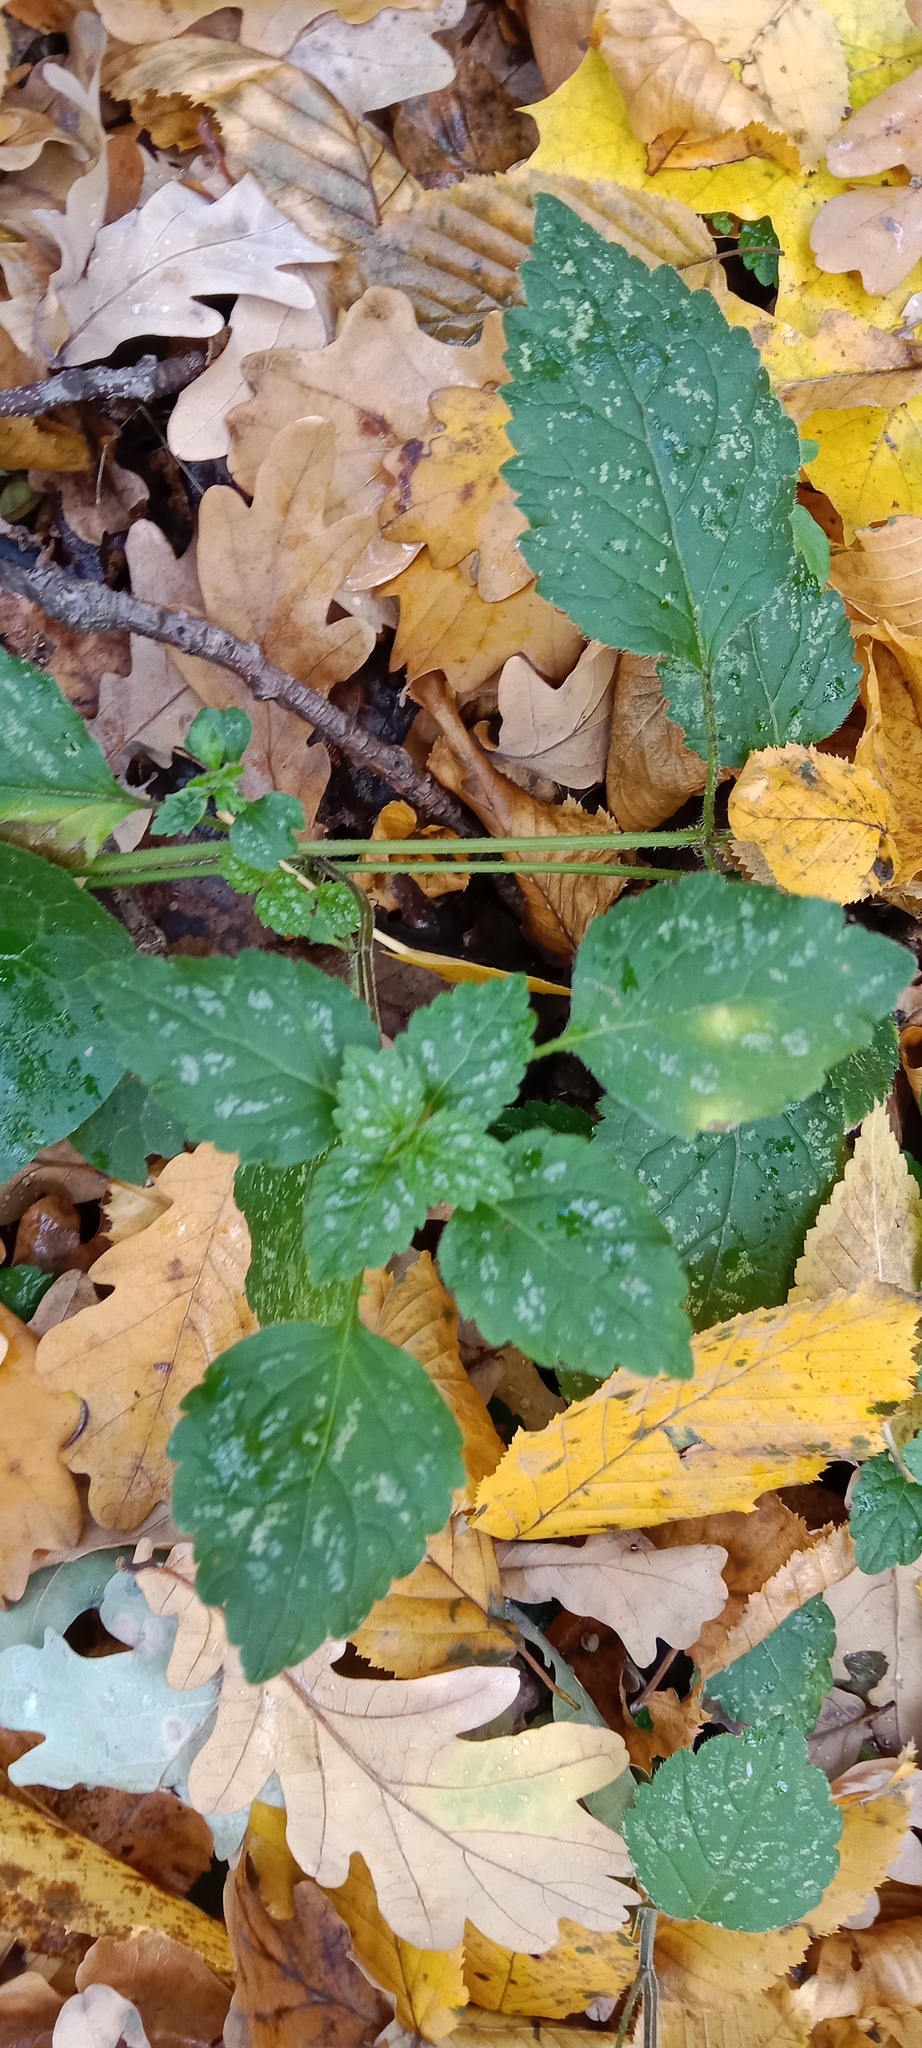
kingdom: Plantae
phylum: Tracheophyta
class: Magnoliopsida
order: Lamiales
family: Lamiaceae
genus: Lamium
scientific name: Lamium galeobdolon
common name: Yellow archangel
